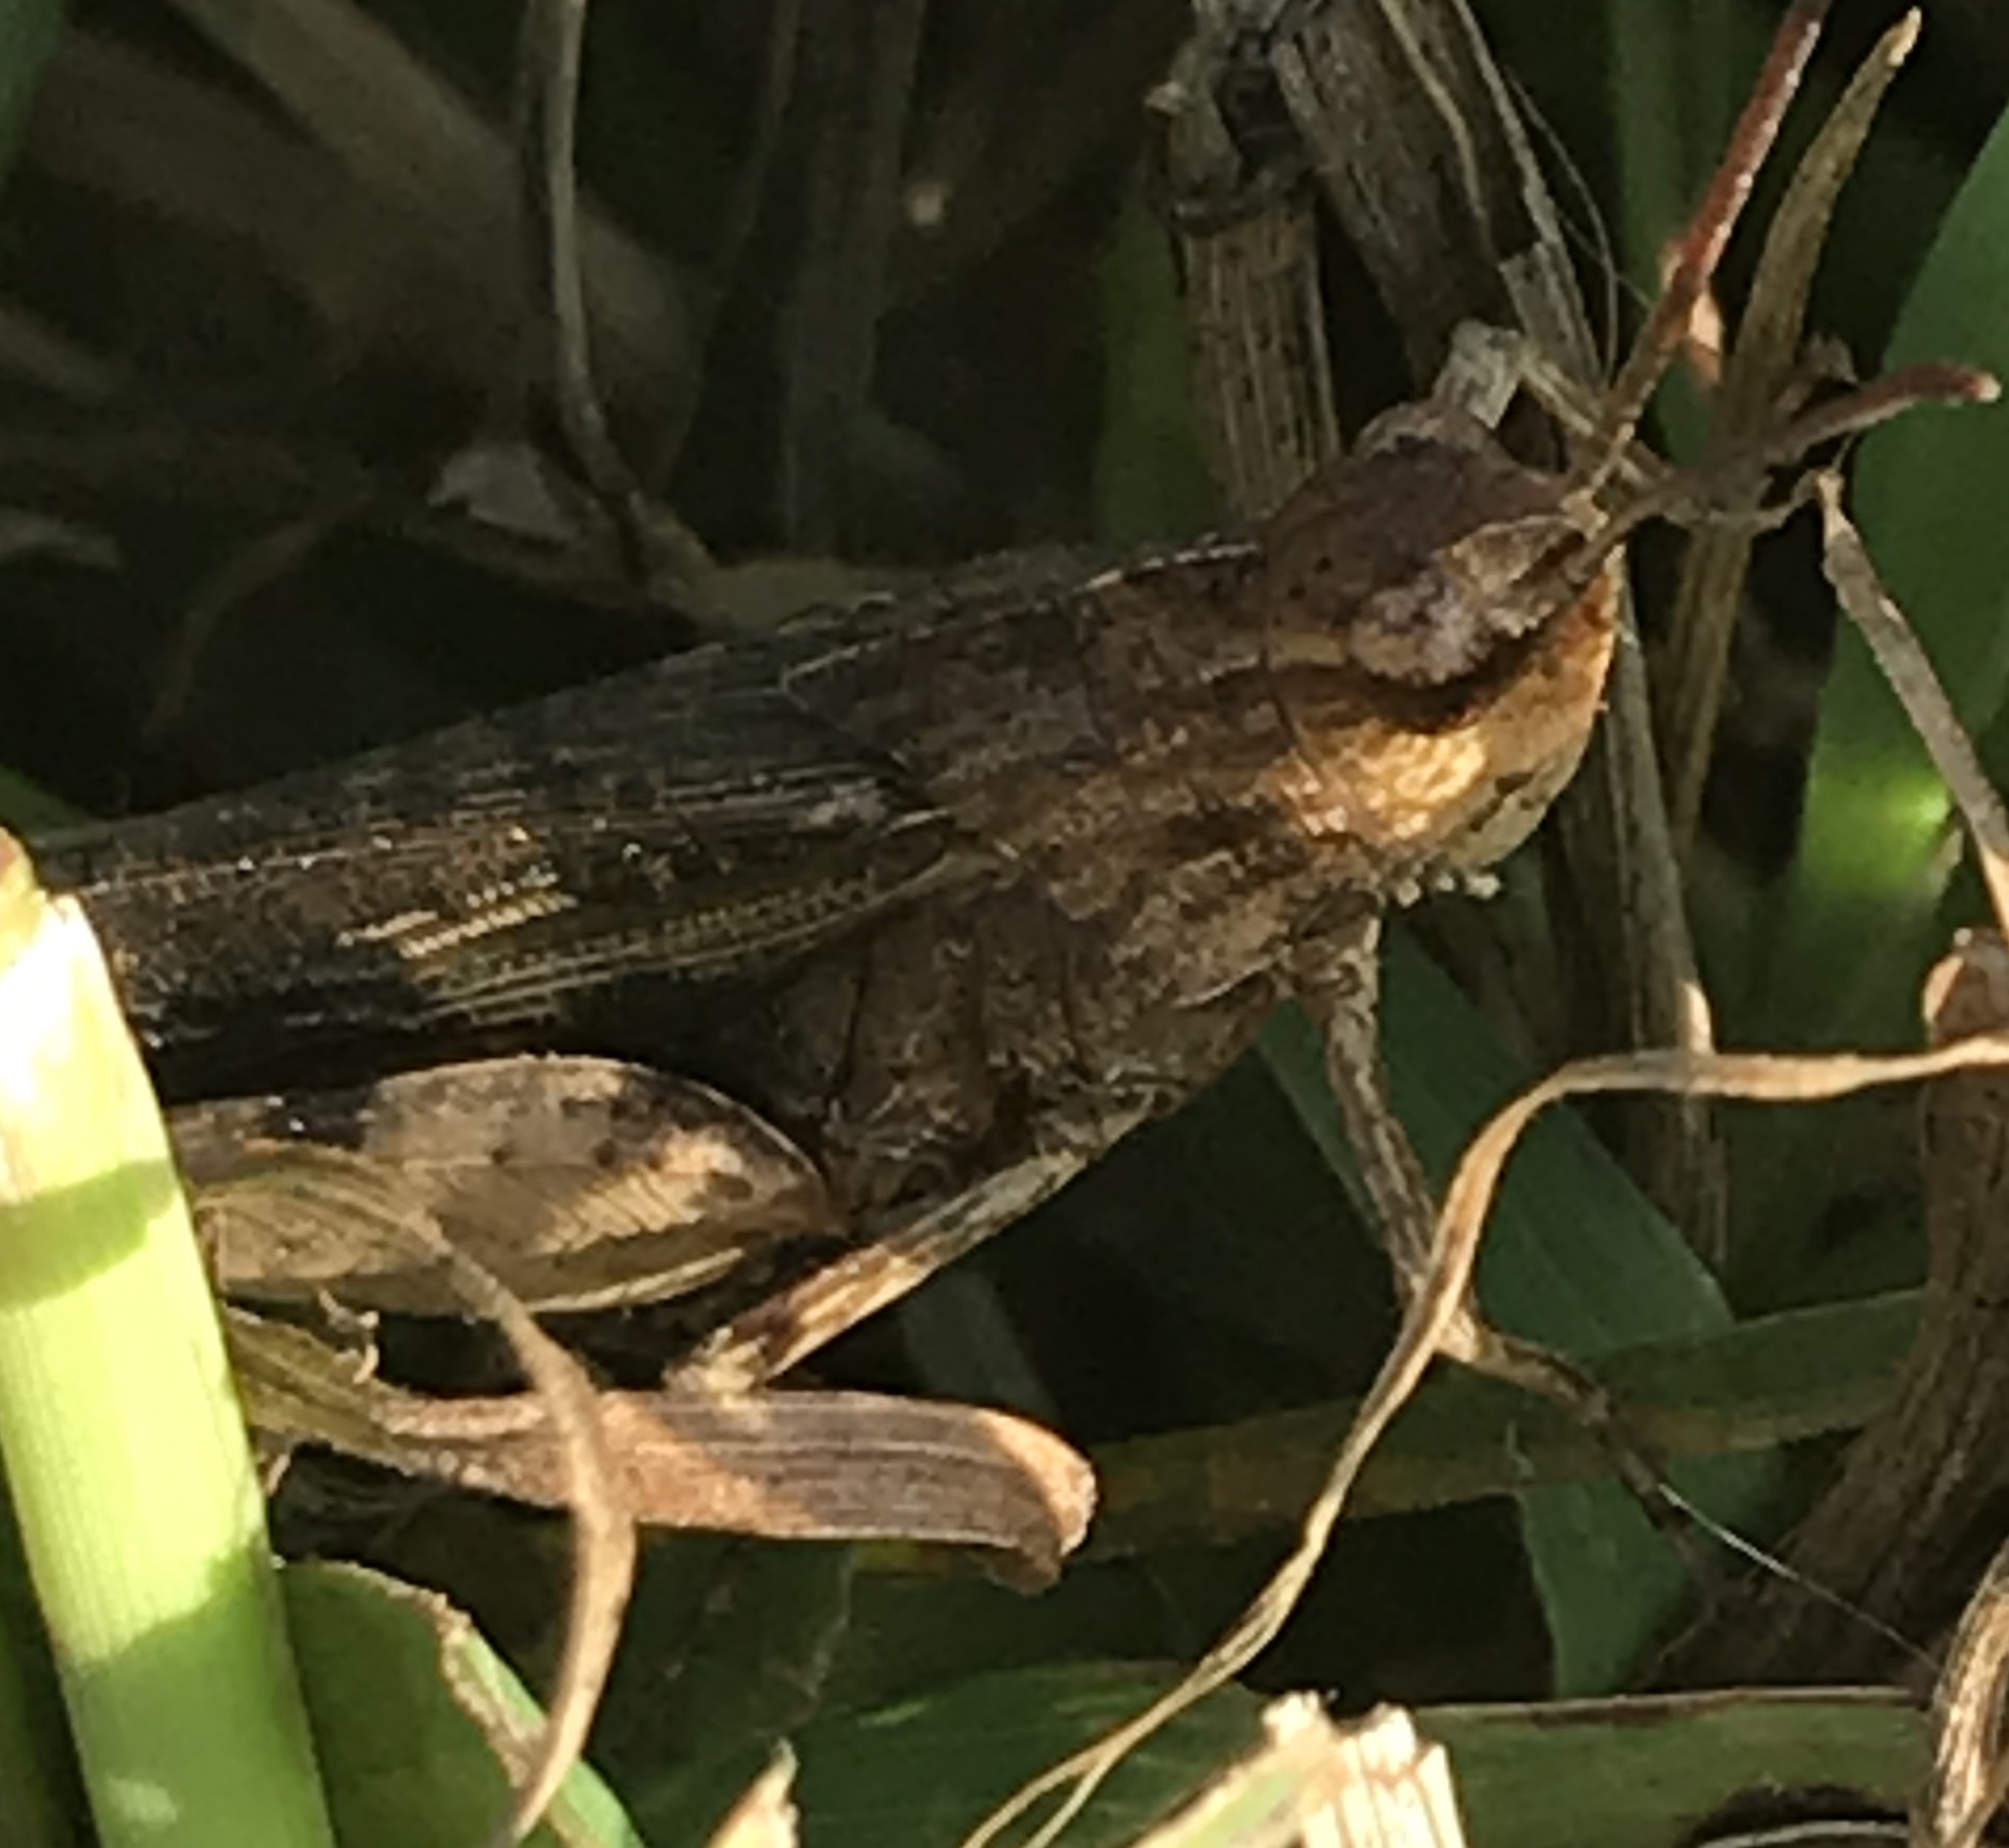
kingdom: Animalia
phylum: Arthropoda
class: Insecta
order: Orthoptera
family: Acrididae
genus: Chortophaga
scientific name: Chortophaga viridifasciata
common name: Green-striped grasshopper
